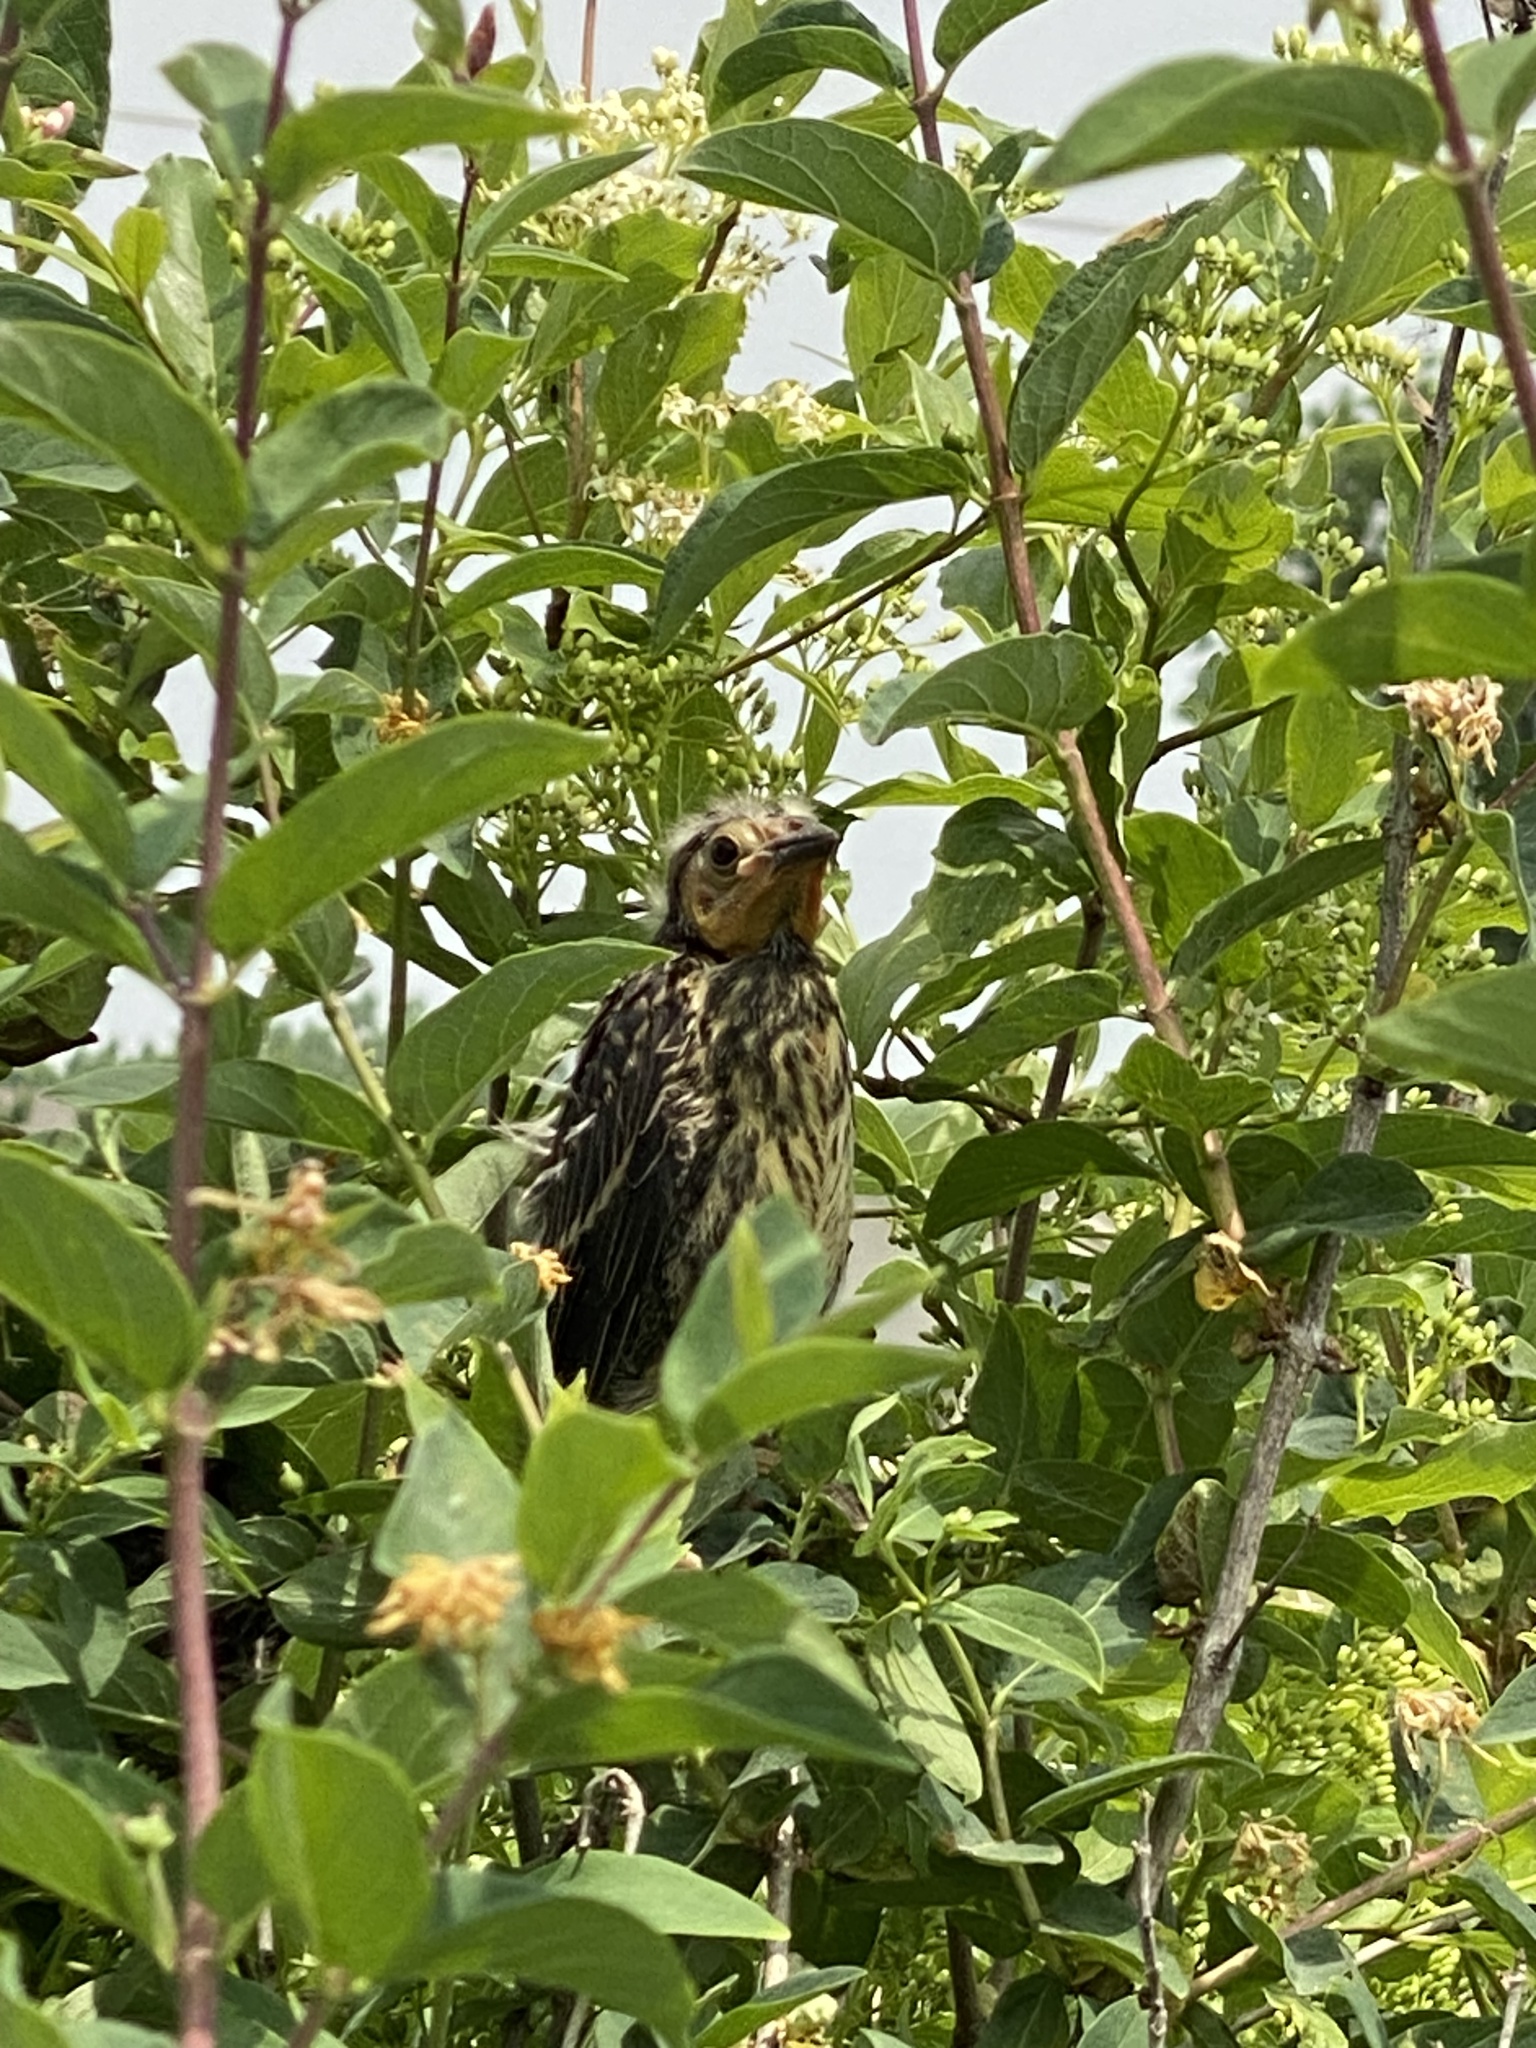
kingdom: Animalia
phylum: Chordata
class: Aves
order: Passeriformes
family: Icteridae
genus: Agelaius
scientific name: Agelaius phoeniceus
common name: Red-winged blackbird
